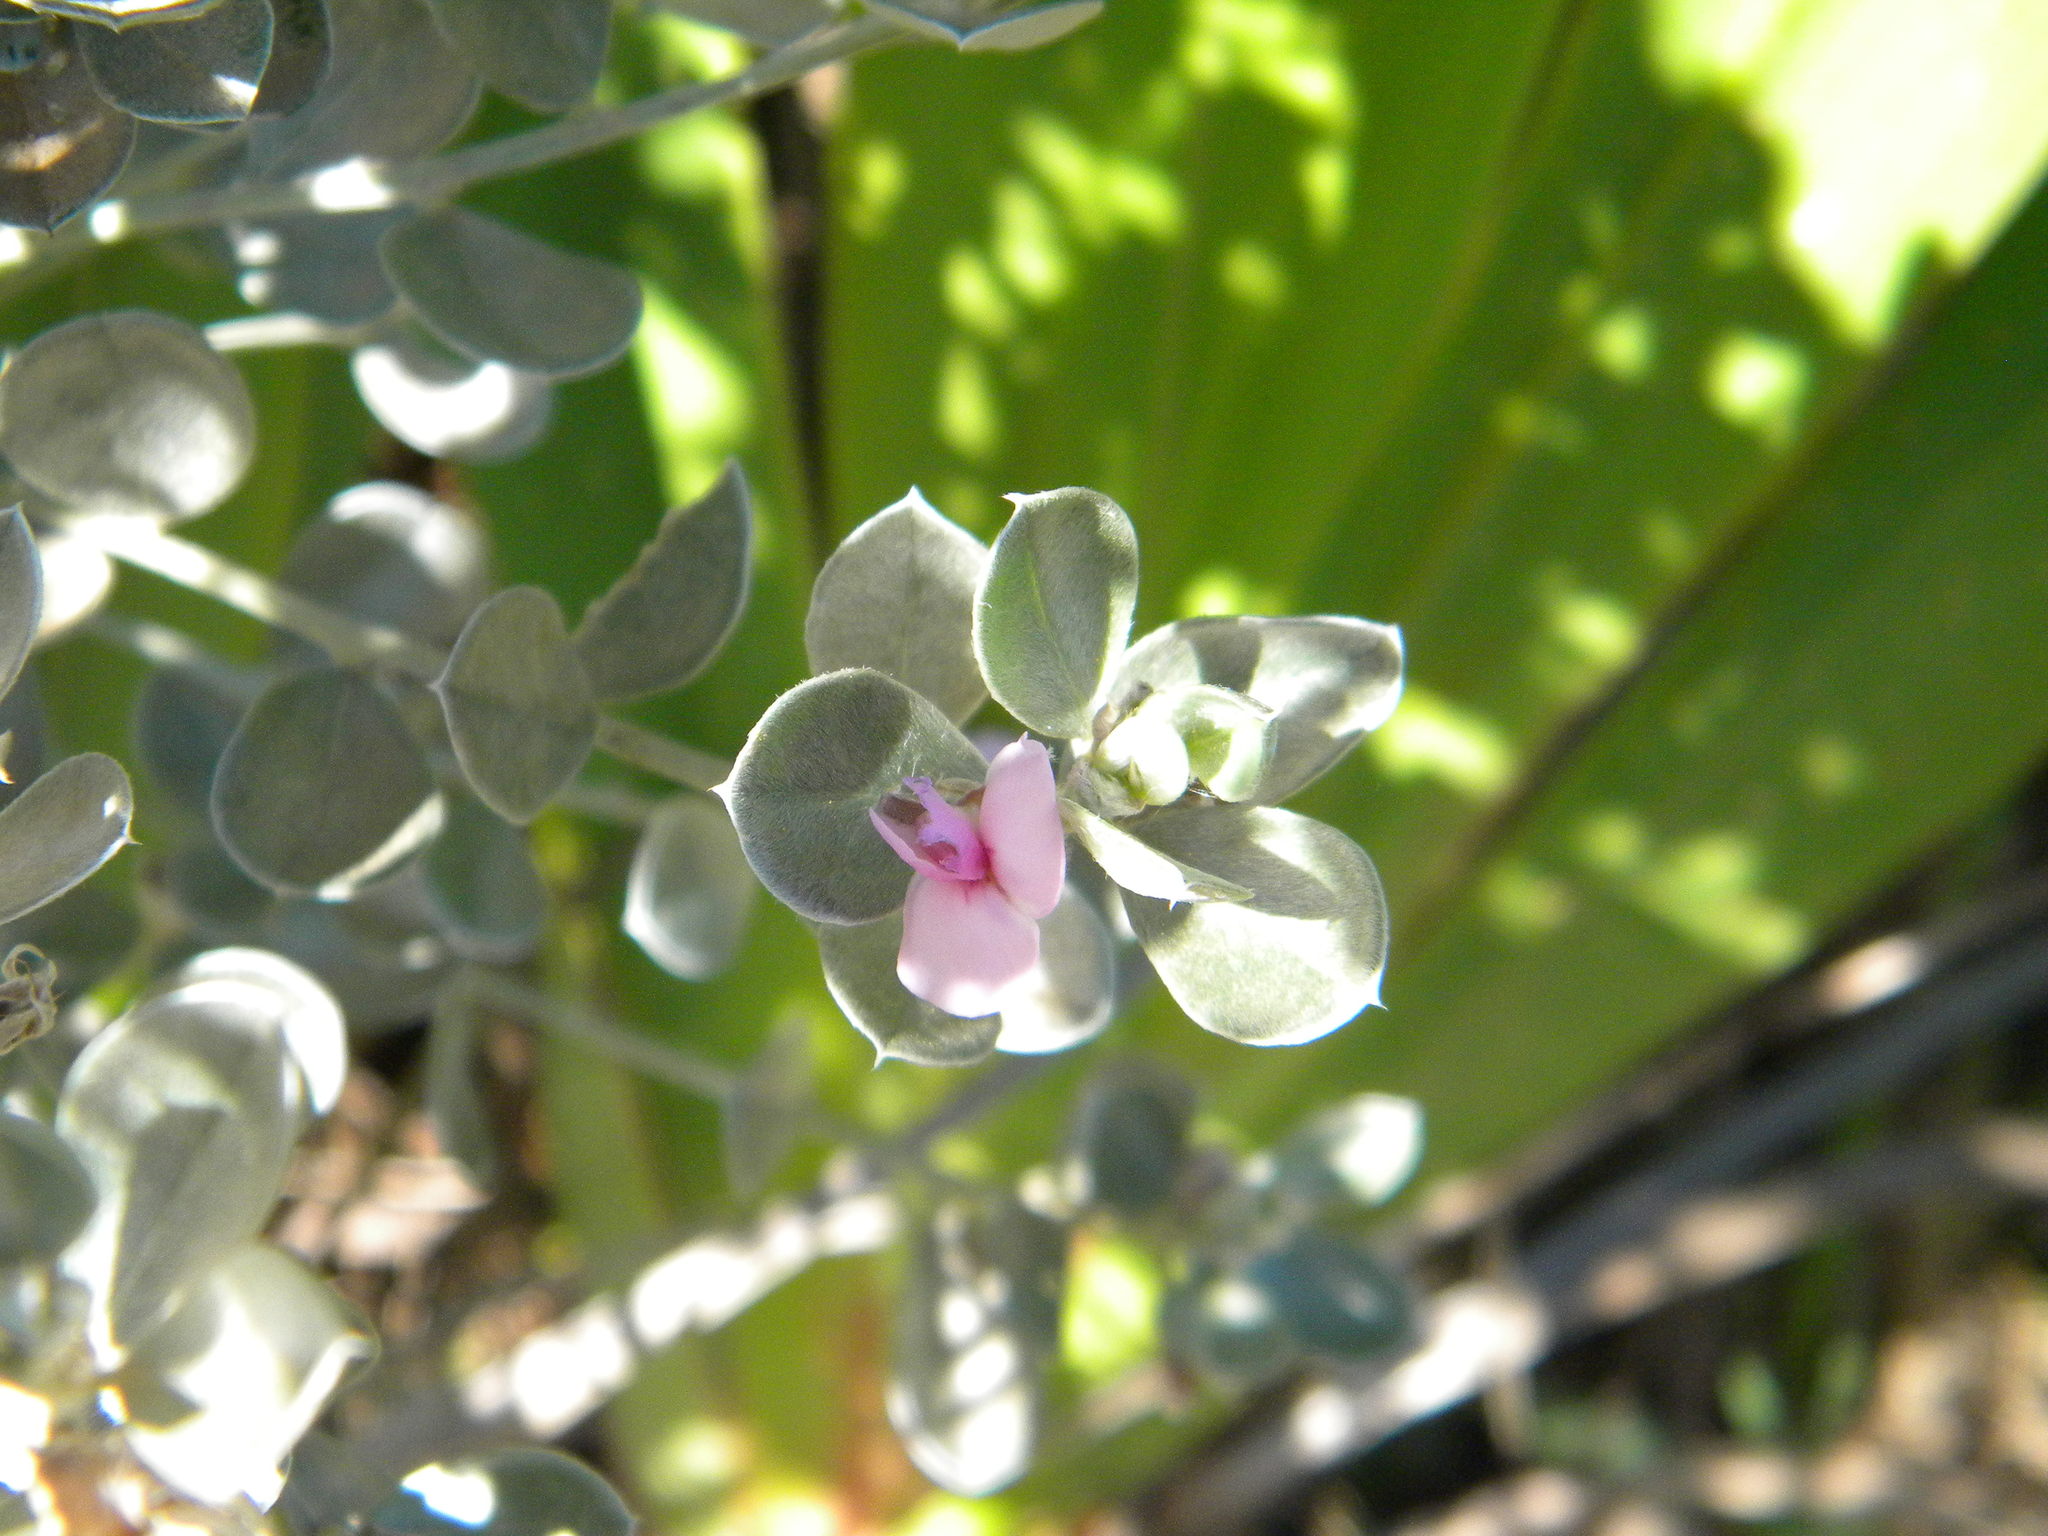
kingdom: Plantae
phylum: Tracheophyta
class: Magnoliopsida
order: Fabales
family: Fabaceae
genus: Podalyria
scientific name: Podalyria sericea
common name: Silver podalyria
